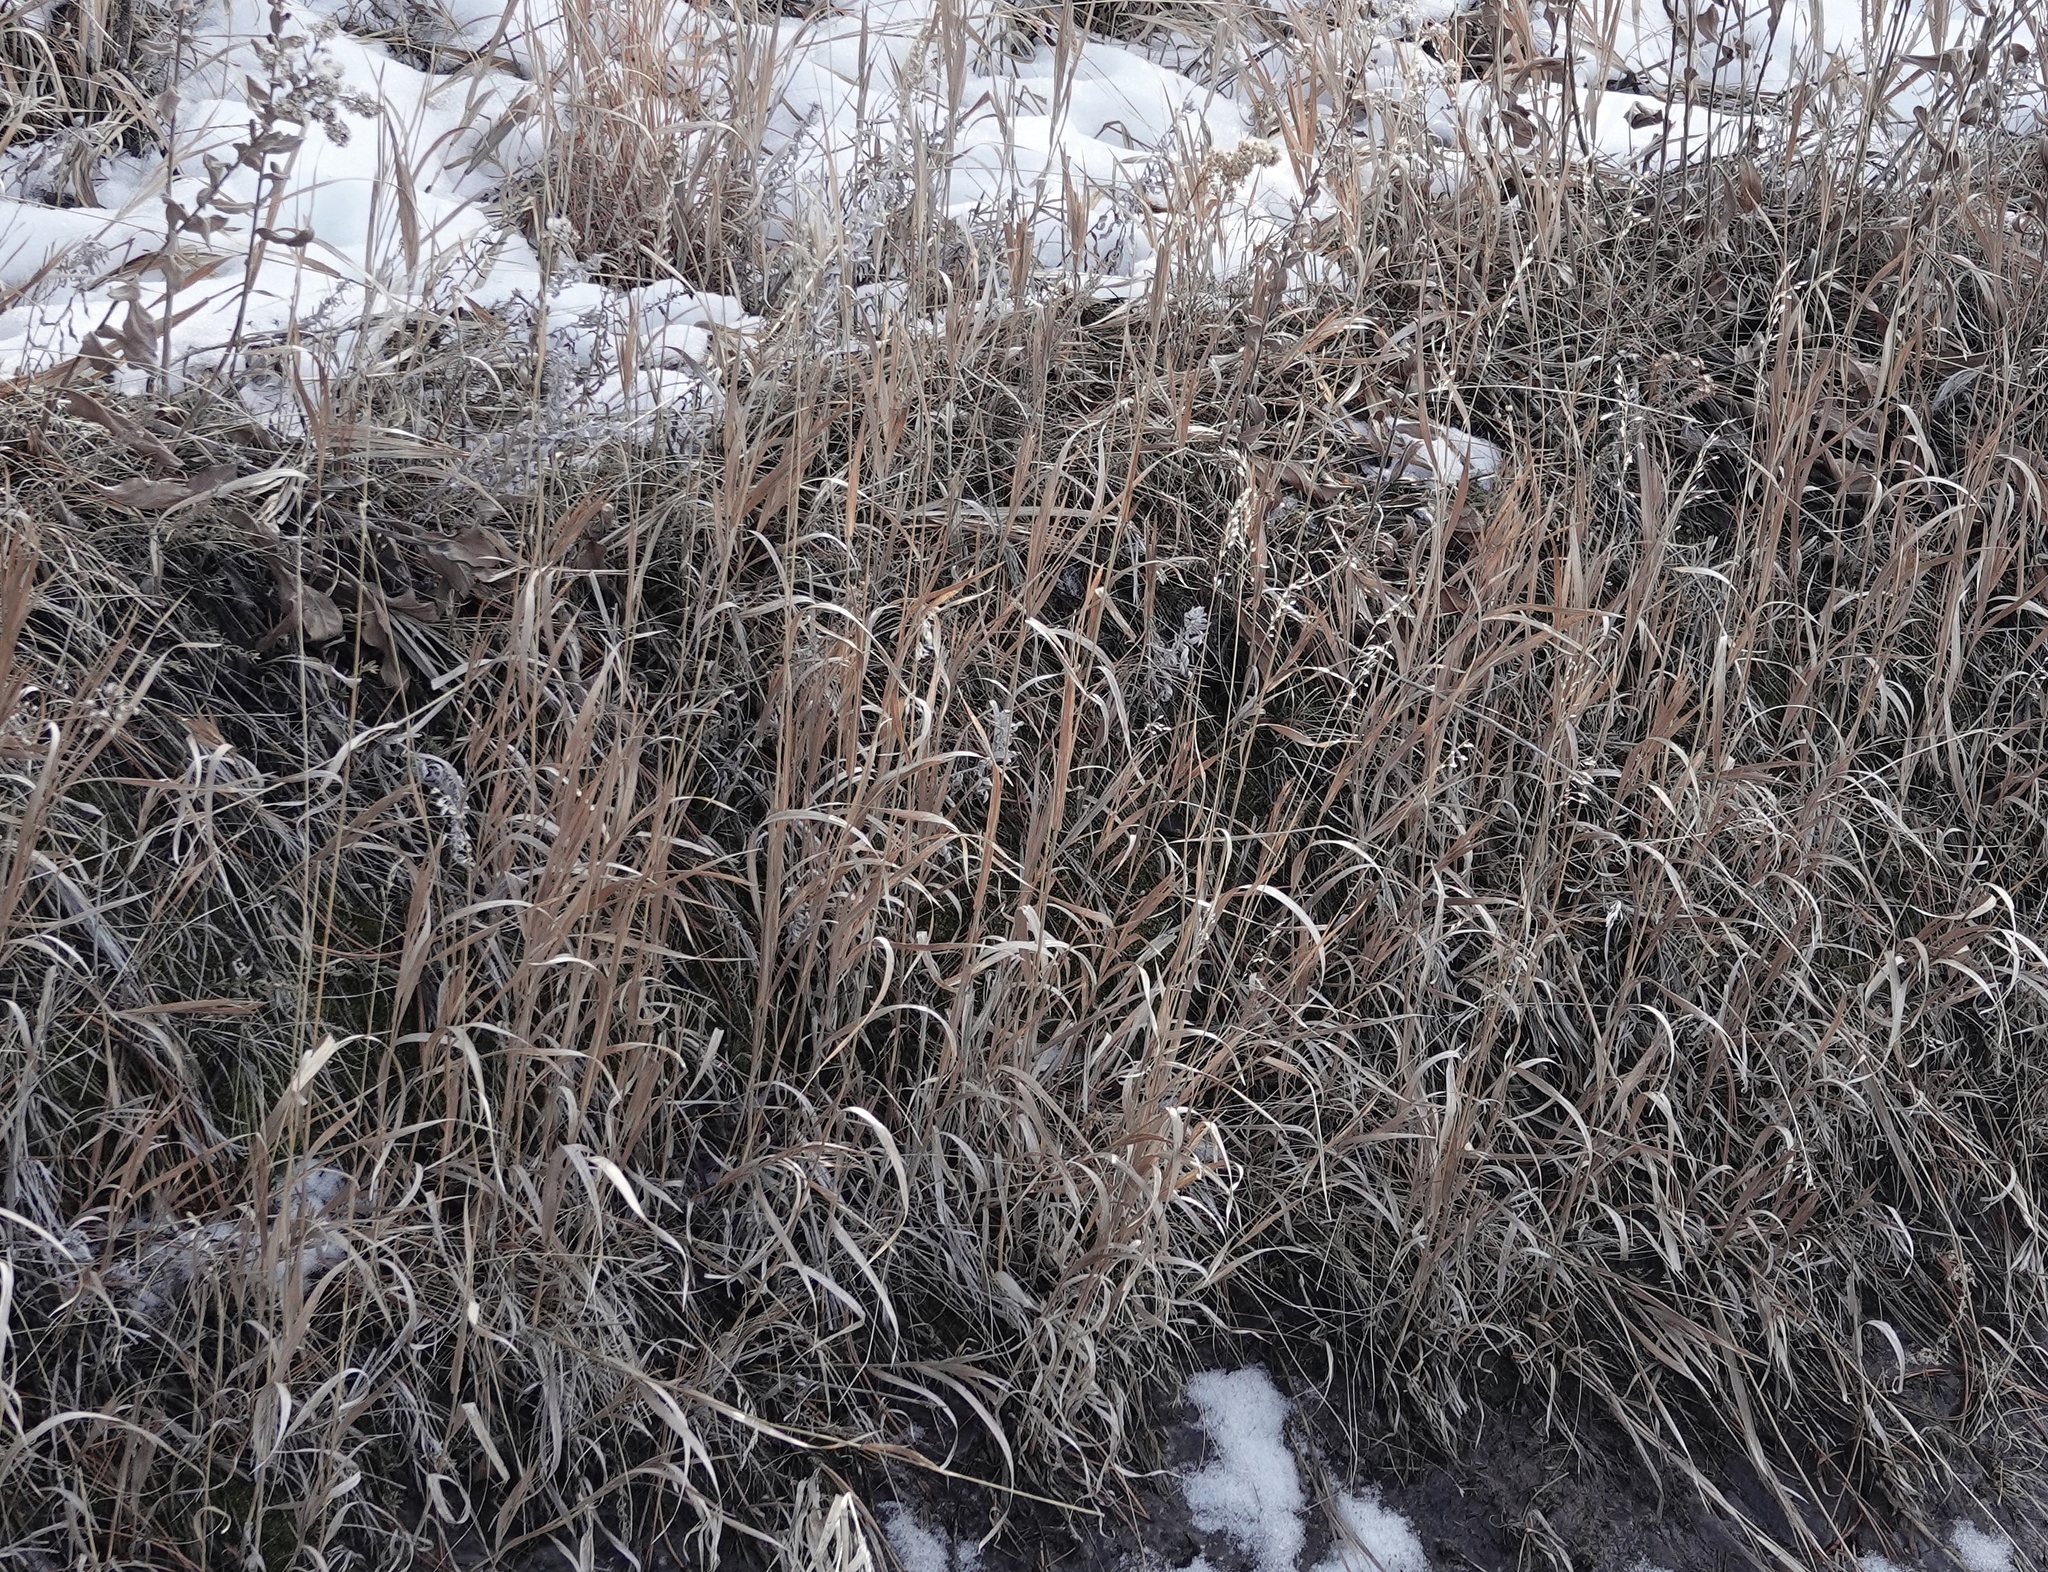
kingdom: Plantae
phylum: Tracheophyta
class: Liliopsida
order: Poales
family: Poaceae
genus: Bromus
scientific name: Bromus inermis
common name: Smooth brome
